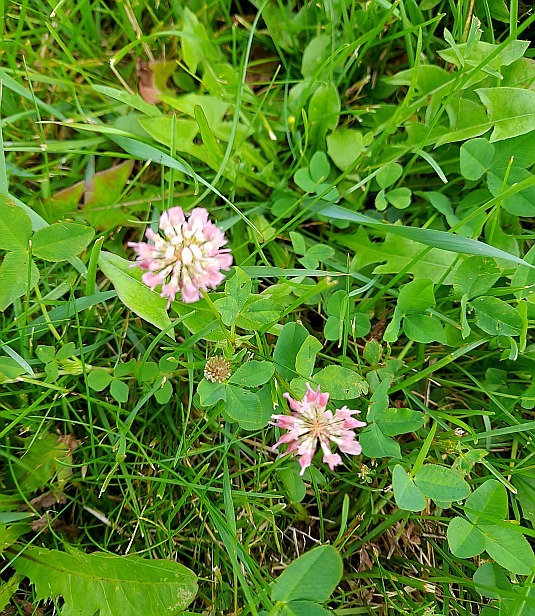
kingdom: Plantae
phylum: Tracheophyta
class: Magnoliopsida
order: Fabales
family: Fabaceae
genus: Trifolium
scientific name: Trifolium hybridum
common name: Alsike clover
